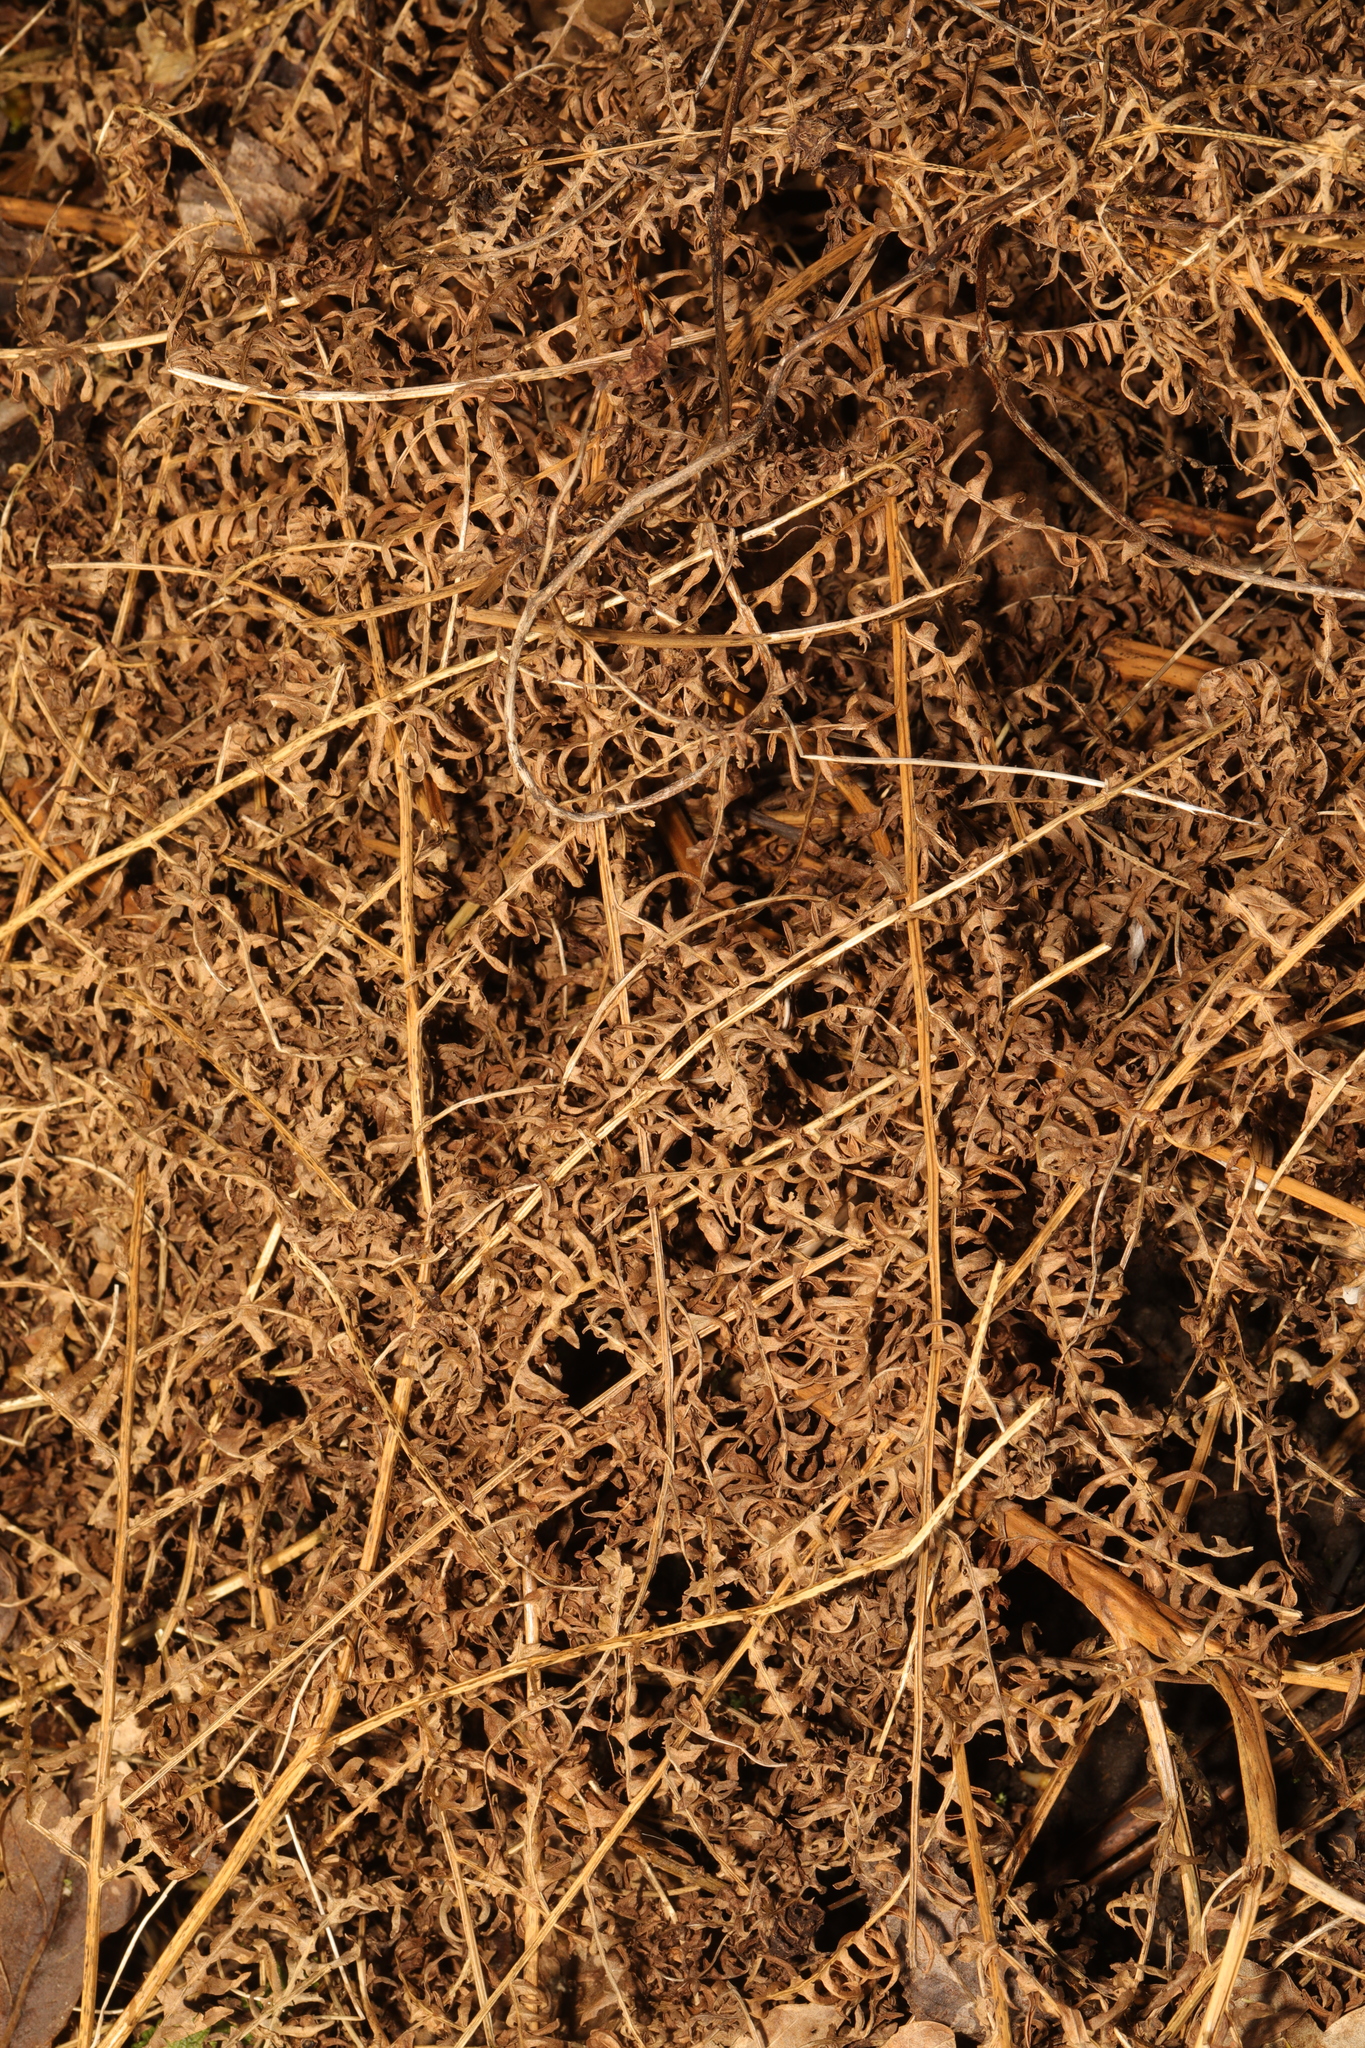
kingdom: Plantae
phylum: Tracheophyta
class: Polypodiopsida
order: Polypodiales
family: Dennstaedtiaceae
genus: Pteridium
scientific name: Pteridium aquilinum
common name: Bracken
